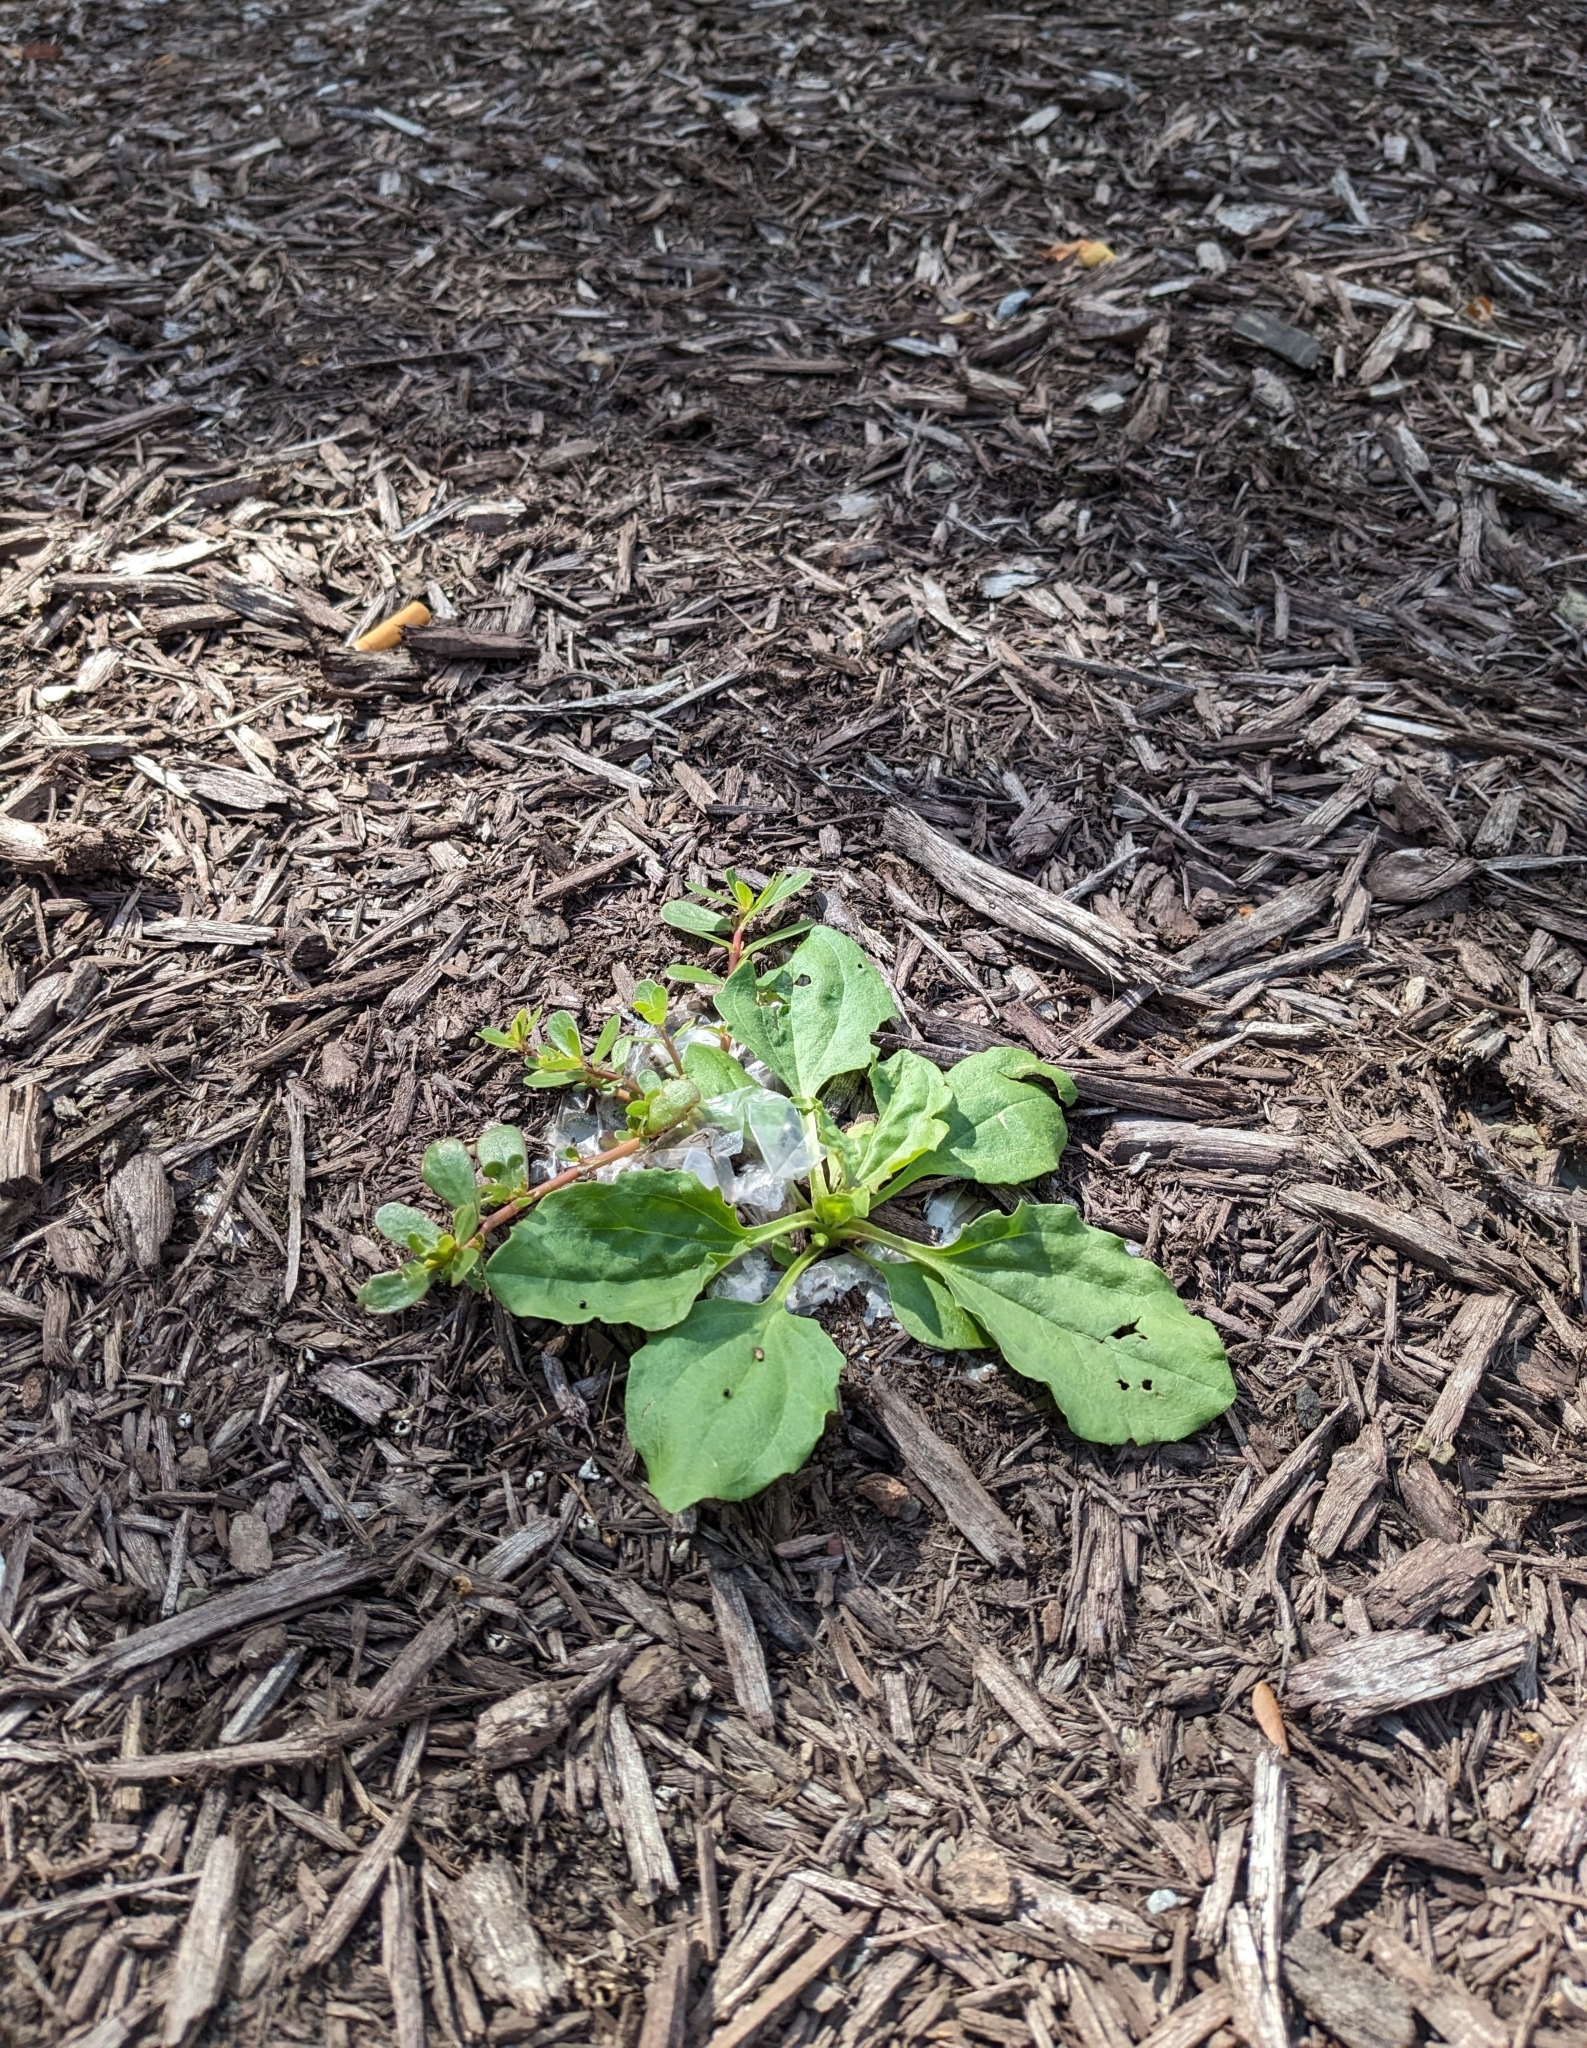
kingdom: Plantae
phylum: Tracheophyta
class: Magnoliopsida
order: Lamiales
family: Plantaginaceae
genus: Plantago
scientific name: Plantago major
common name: Common plantain
